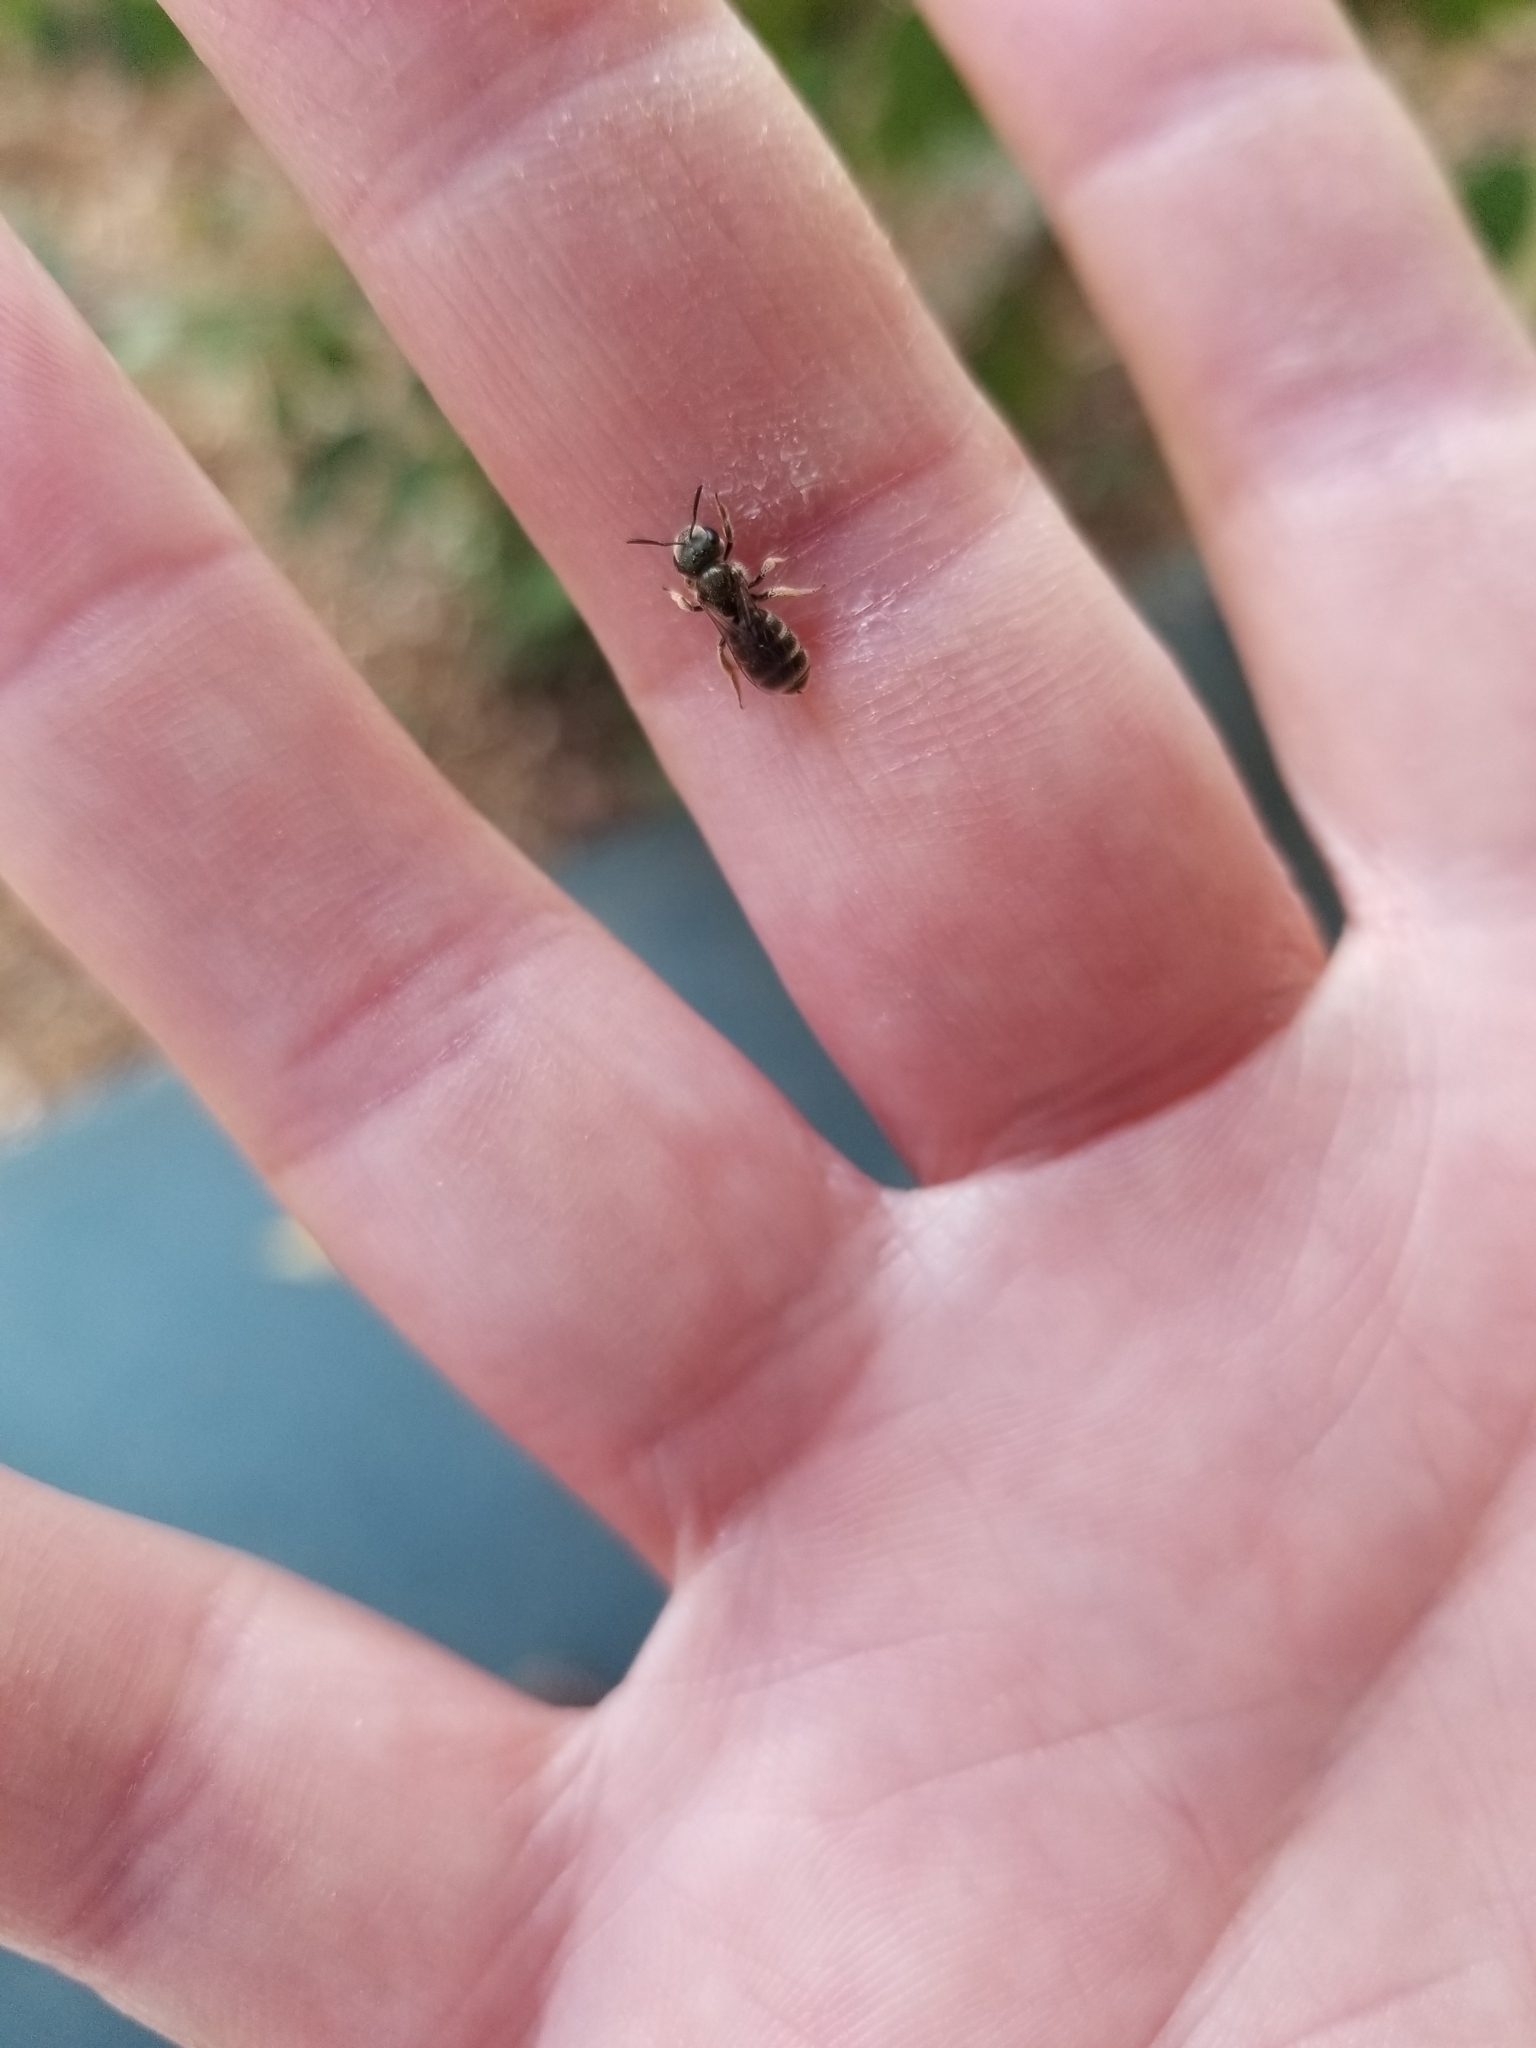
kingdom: Animalia
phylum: Arthropoda
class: Insecta
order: Hymenoptera
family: Halictidae
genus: Seladonia
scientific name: Seladonia
